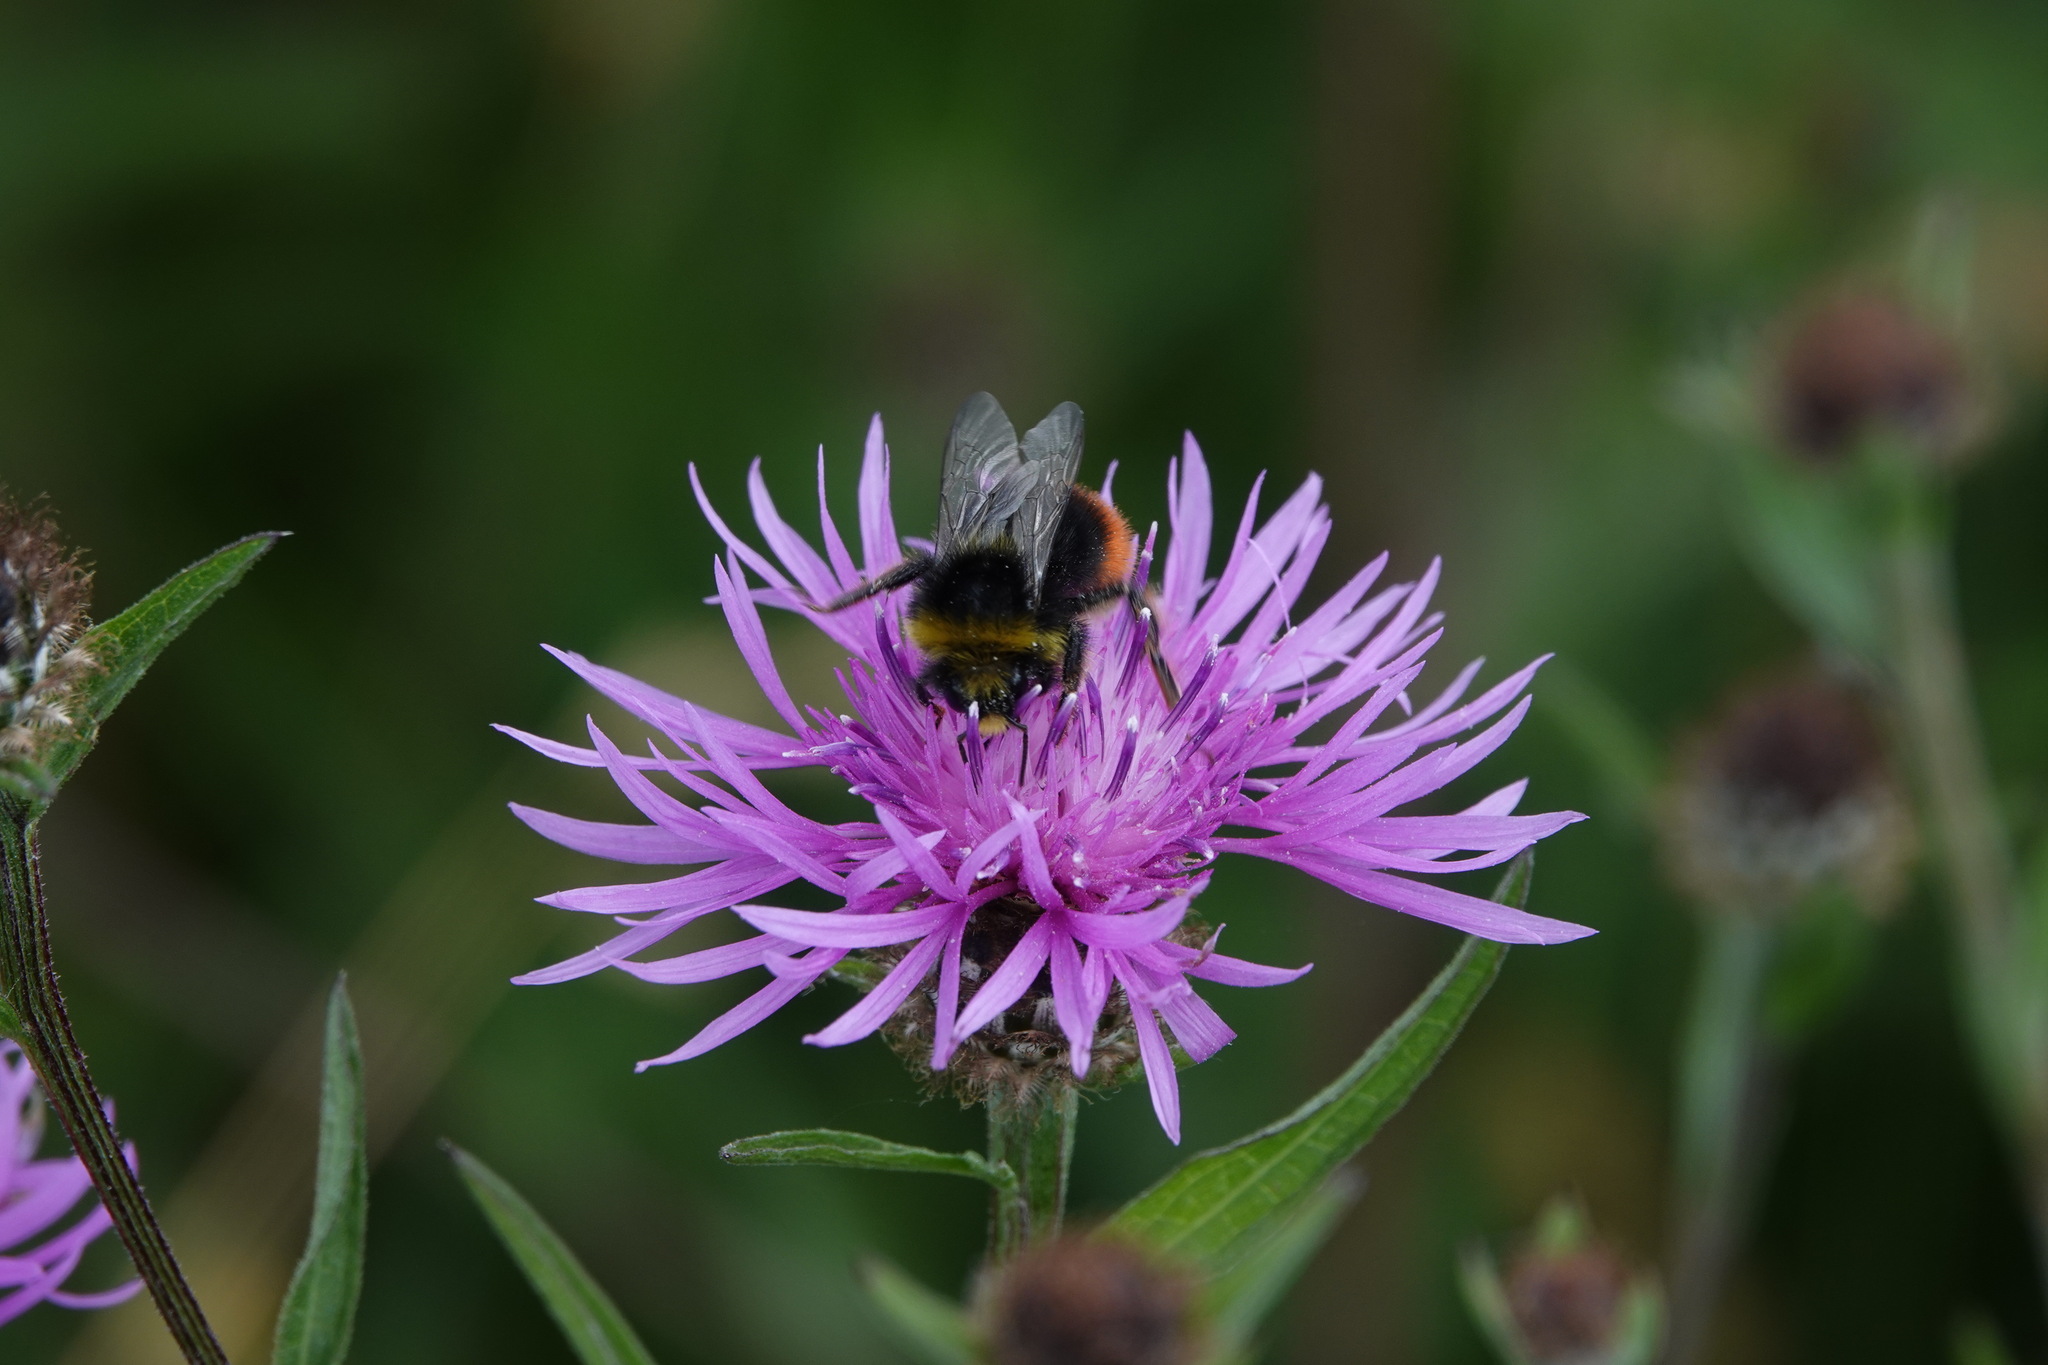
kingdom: Animalia
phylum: Arthropoda
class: Insecta
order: Hymenoptera
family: Apidae
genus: Bombus
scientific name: Bombus lapidarius
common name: Large red-tailed humble-bee
